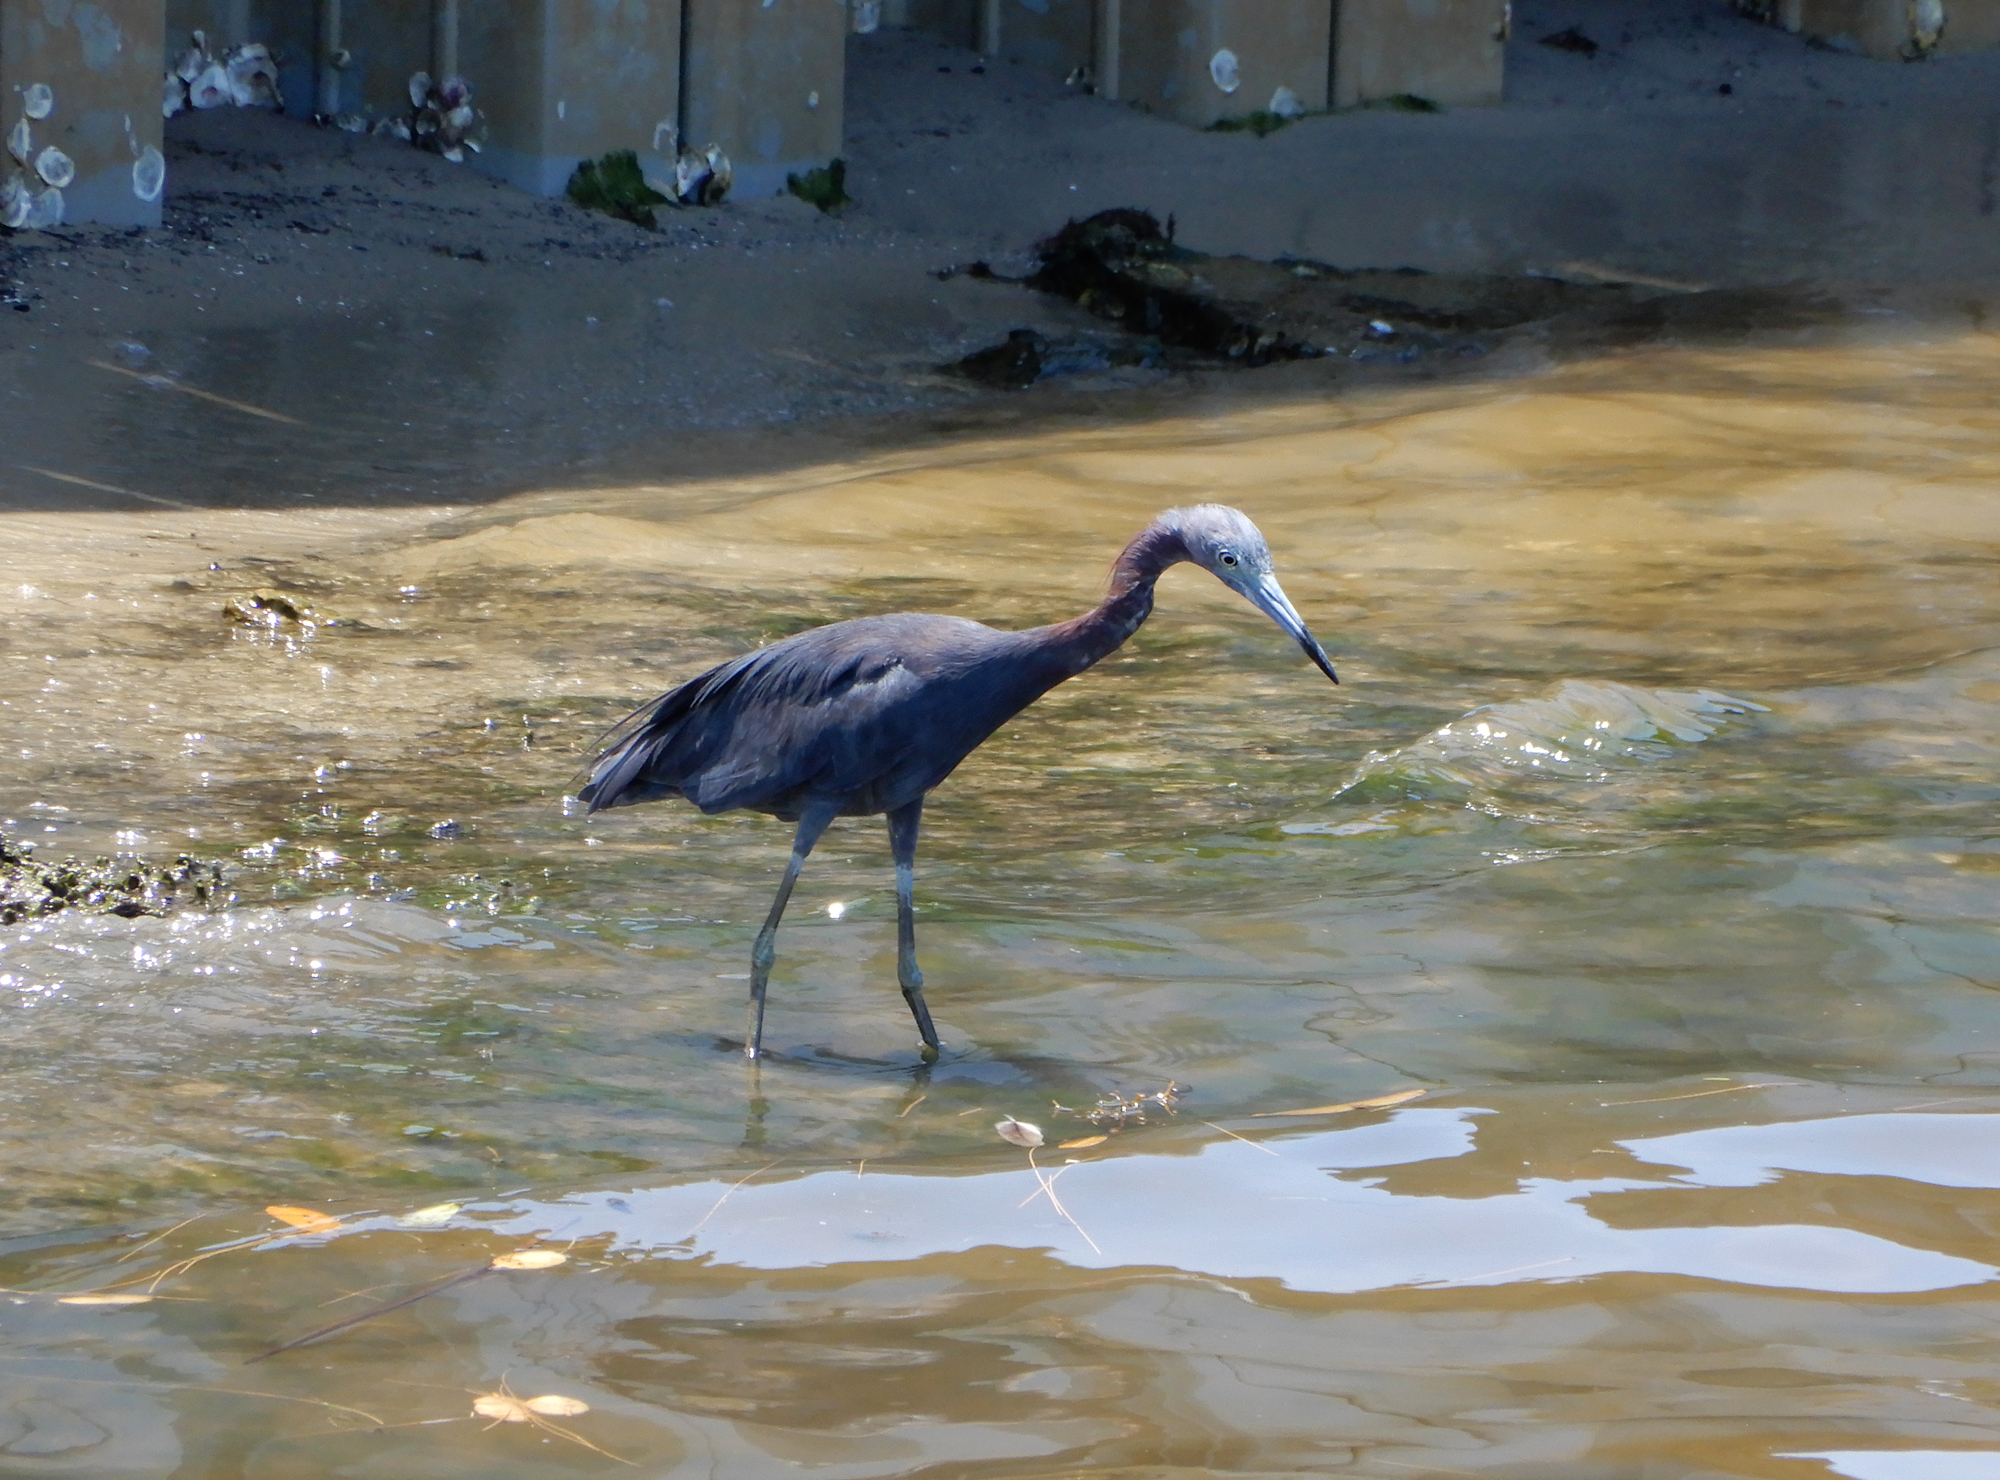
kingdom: Animalia
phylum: Chordata
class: Aves
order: Pelecaniformes
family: Ardeidae
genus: Egretta
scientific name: Egretta caerulea
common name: Little blue heron
